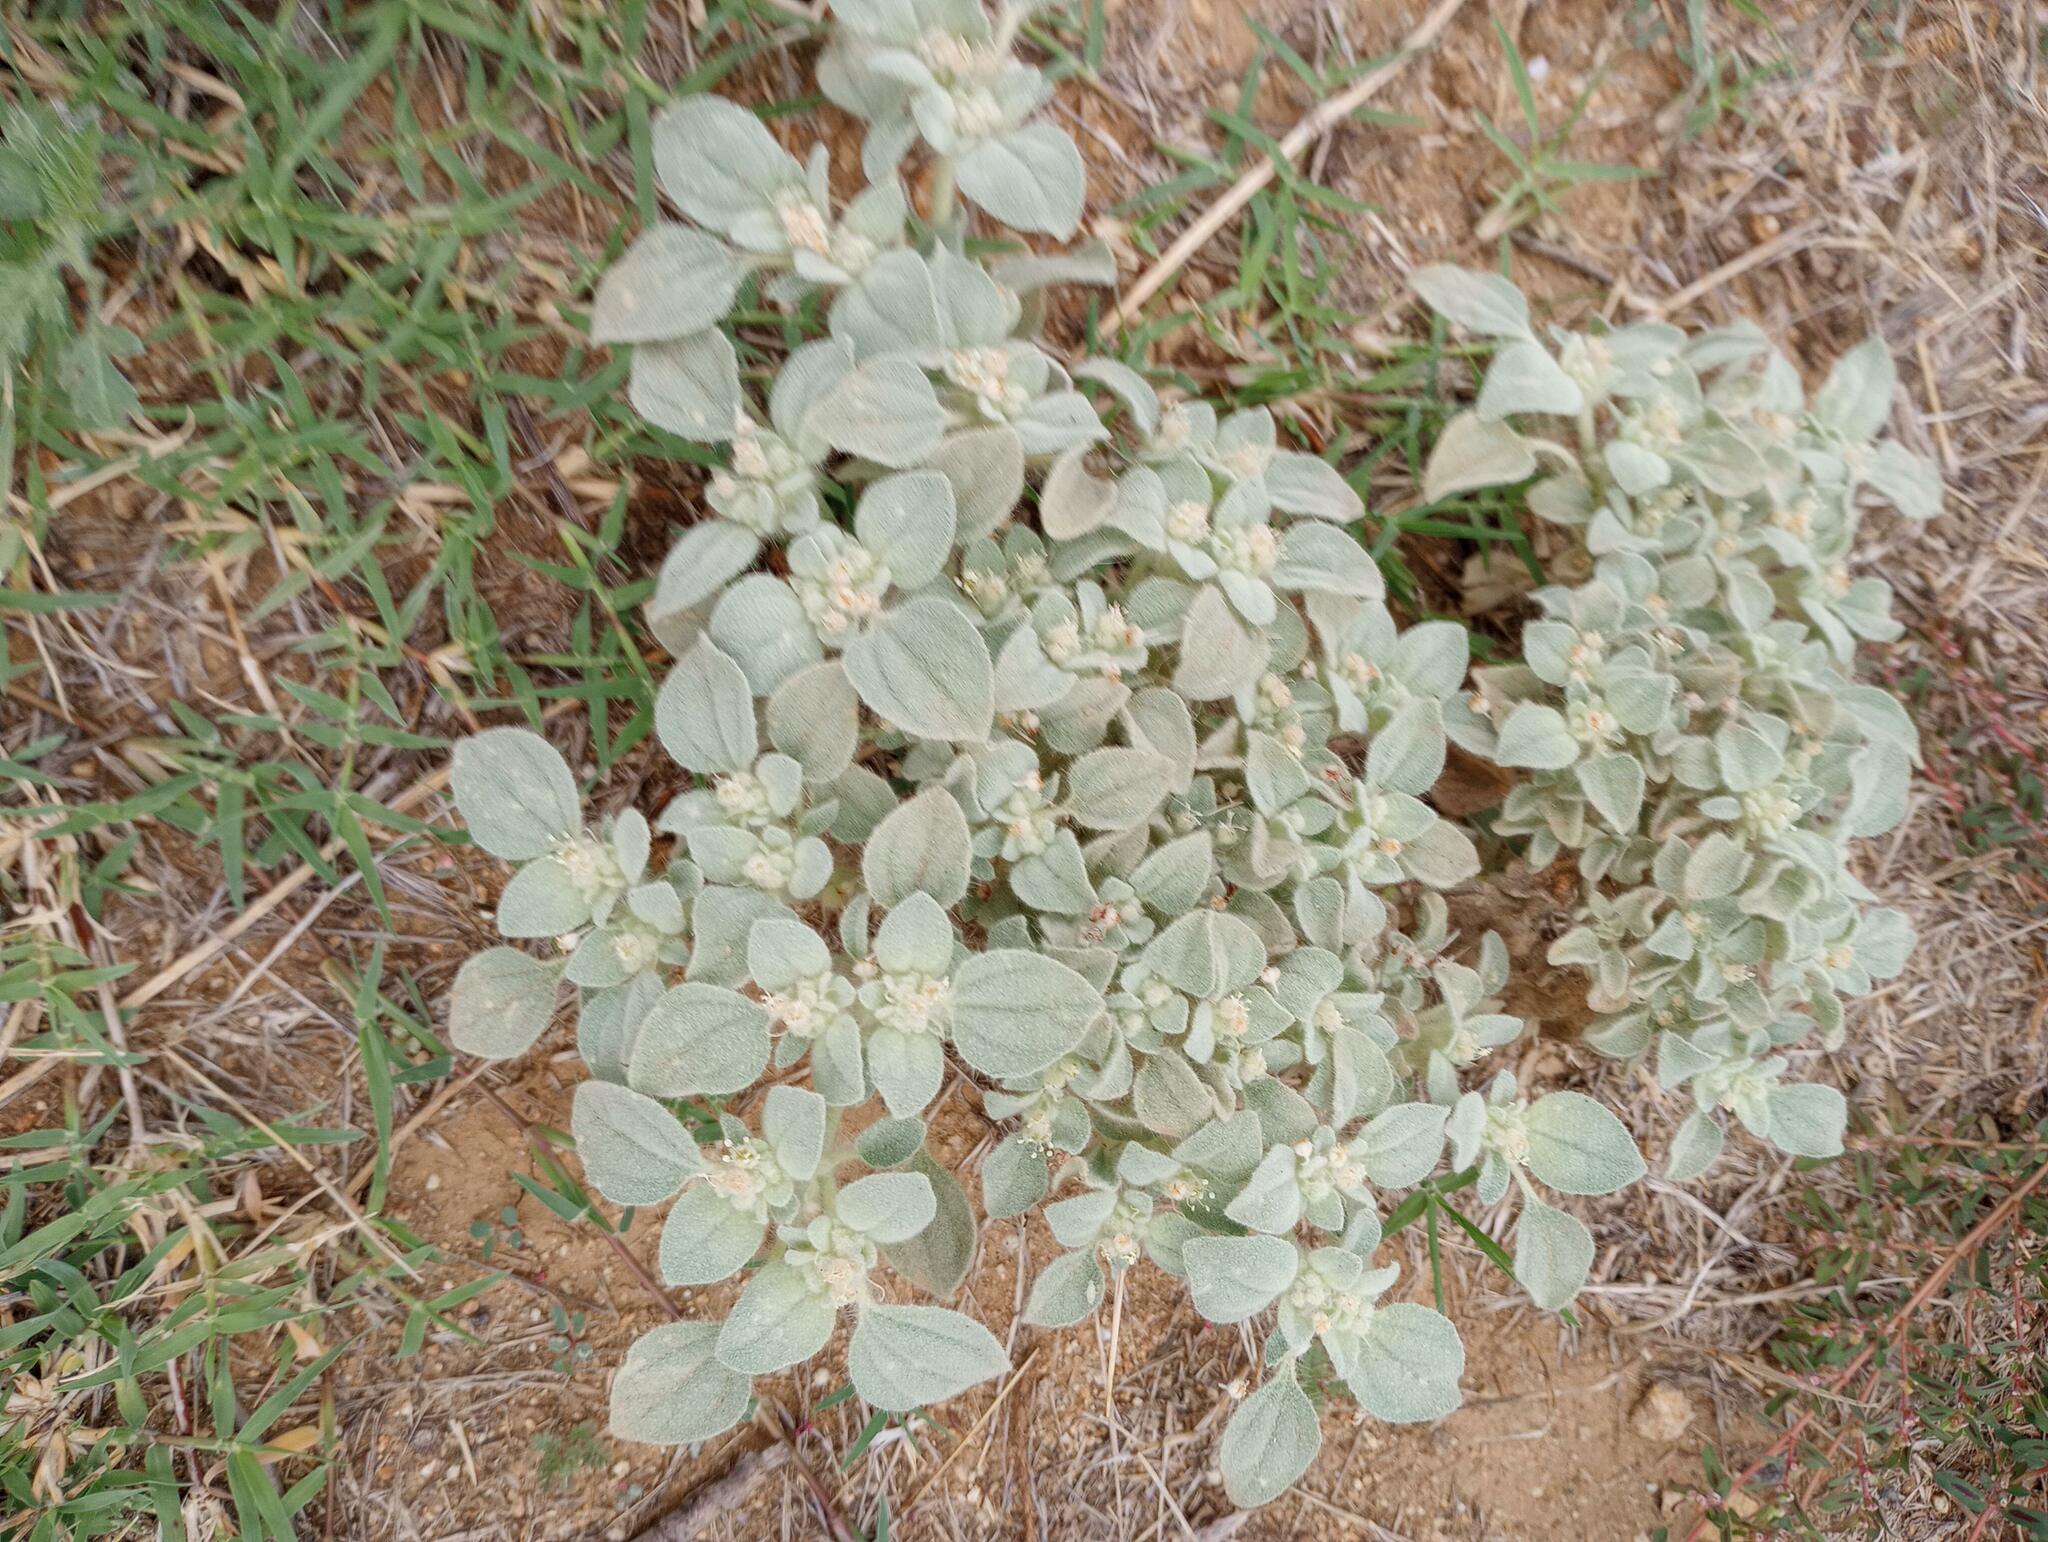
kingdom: Plantae
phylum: Tracheophyta
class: Magnoliopsida
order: Malpighiales
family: Euphorbiaceae
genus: Croton
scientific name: Croton setiger
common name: Dove weed
